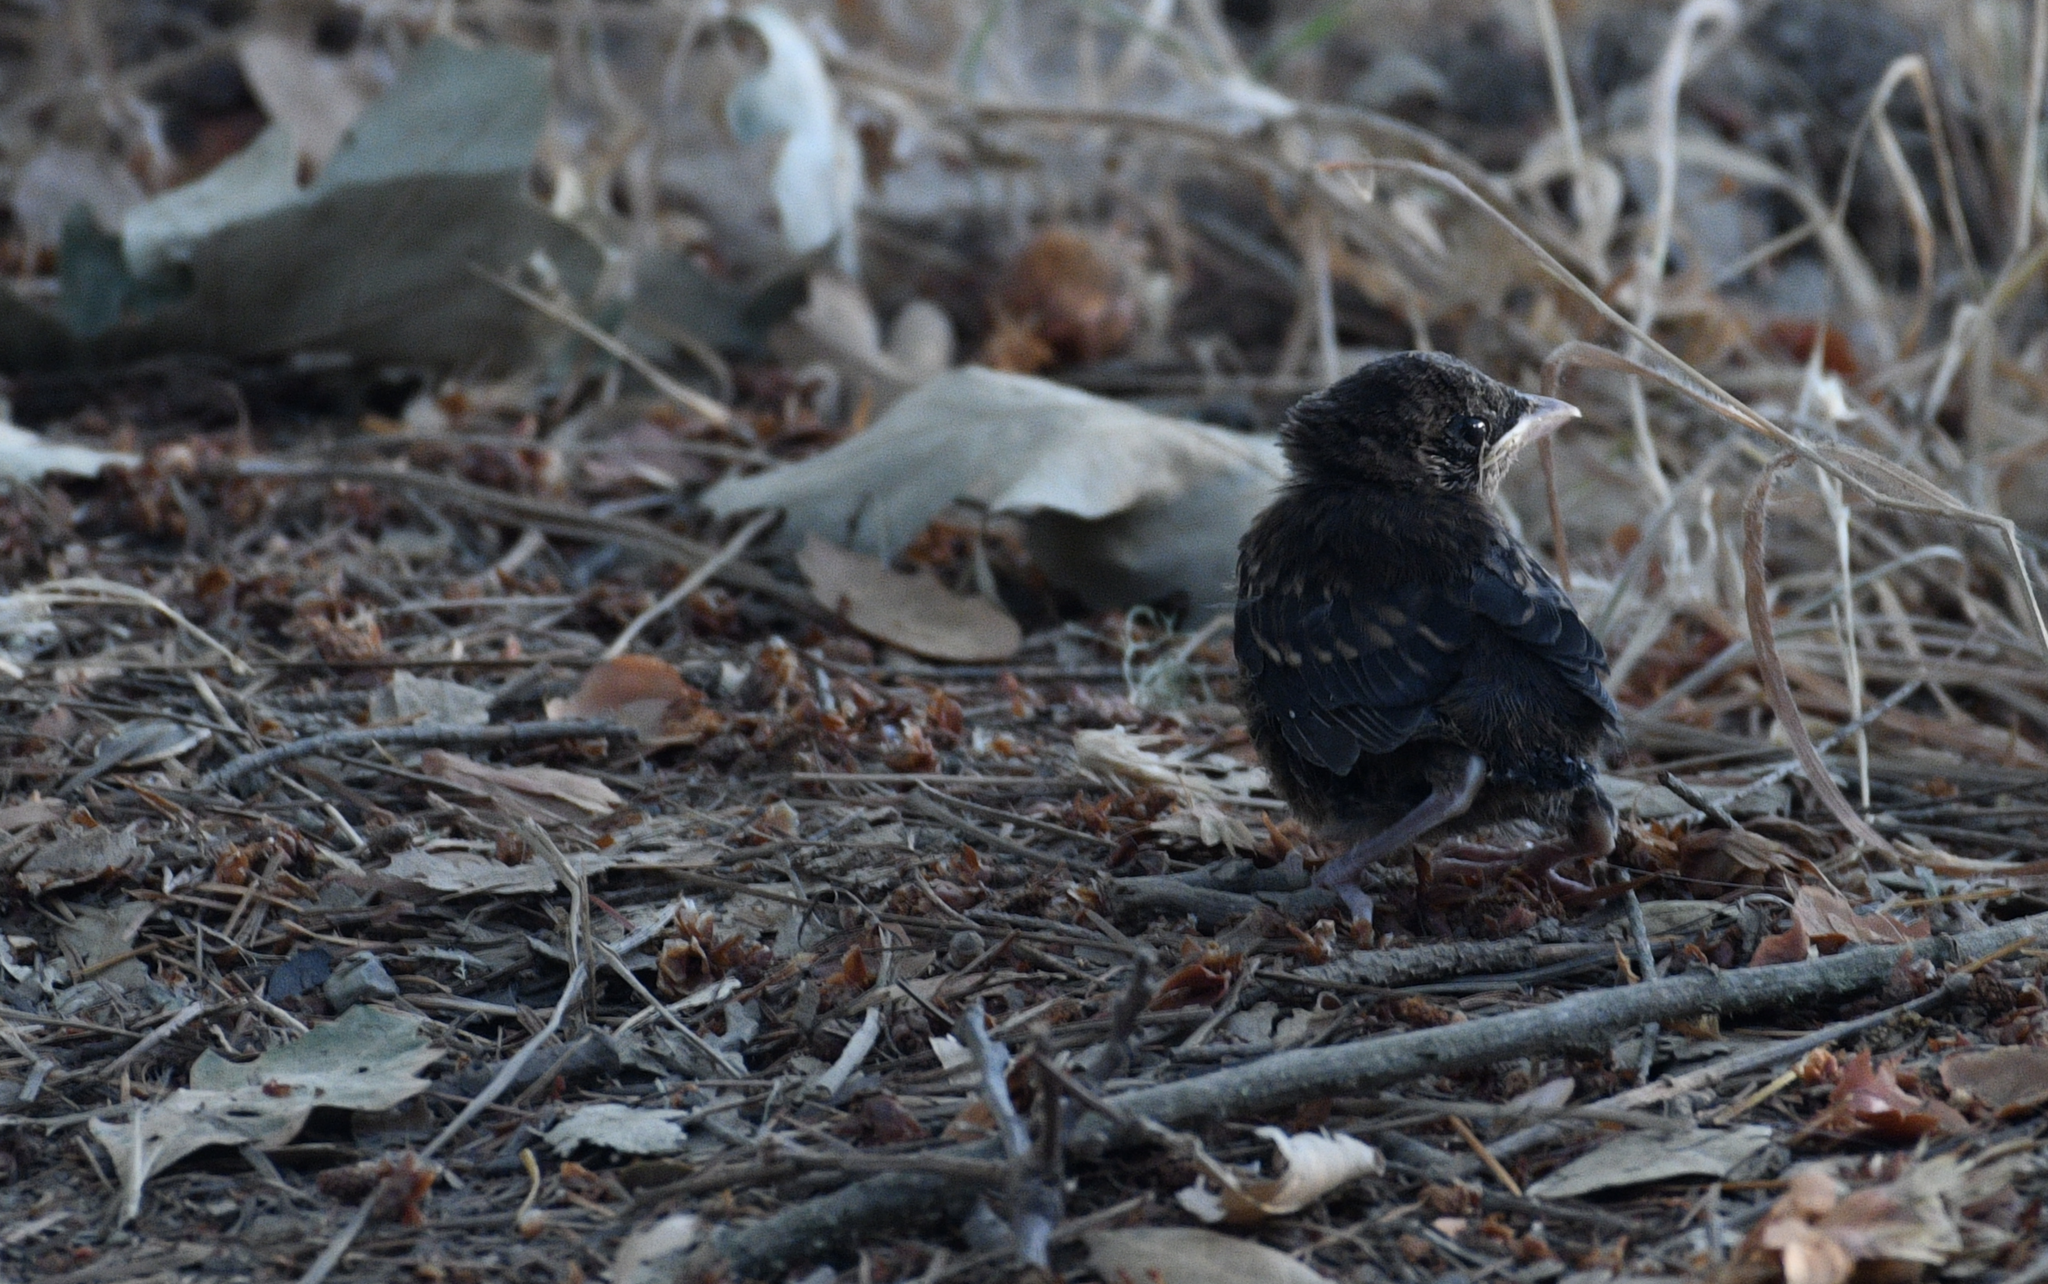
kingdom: Animalia
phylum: Chordata
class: Aves
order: Passeriformes
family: Passerellidae
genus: Pipilo
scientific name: Pipilo maculatus
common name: Spotted towhee
